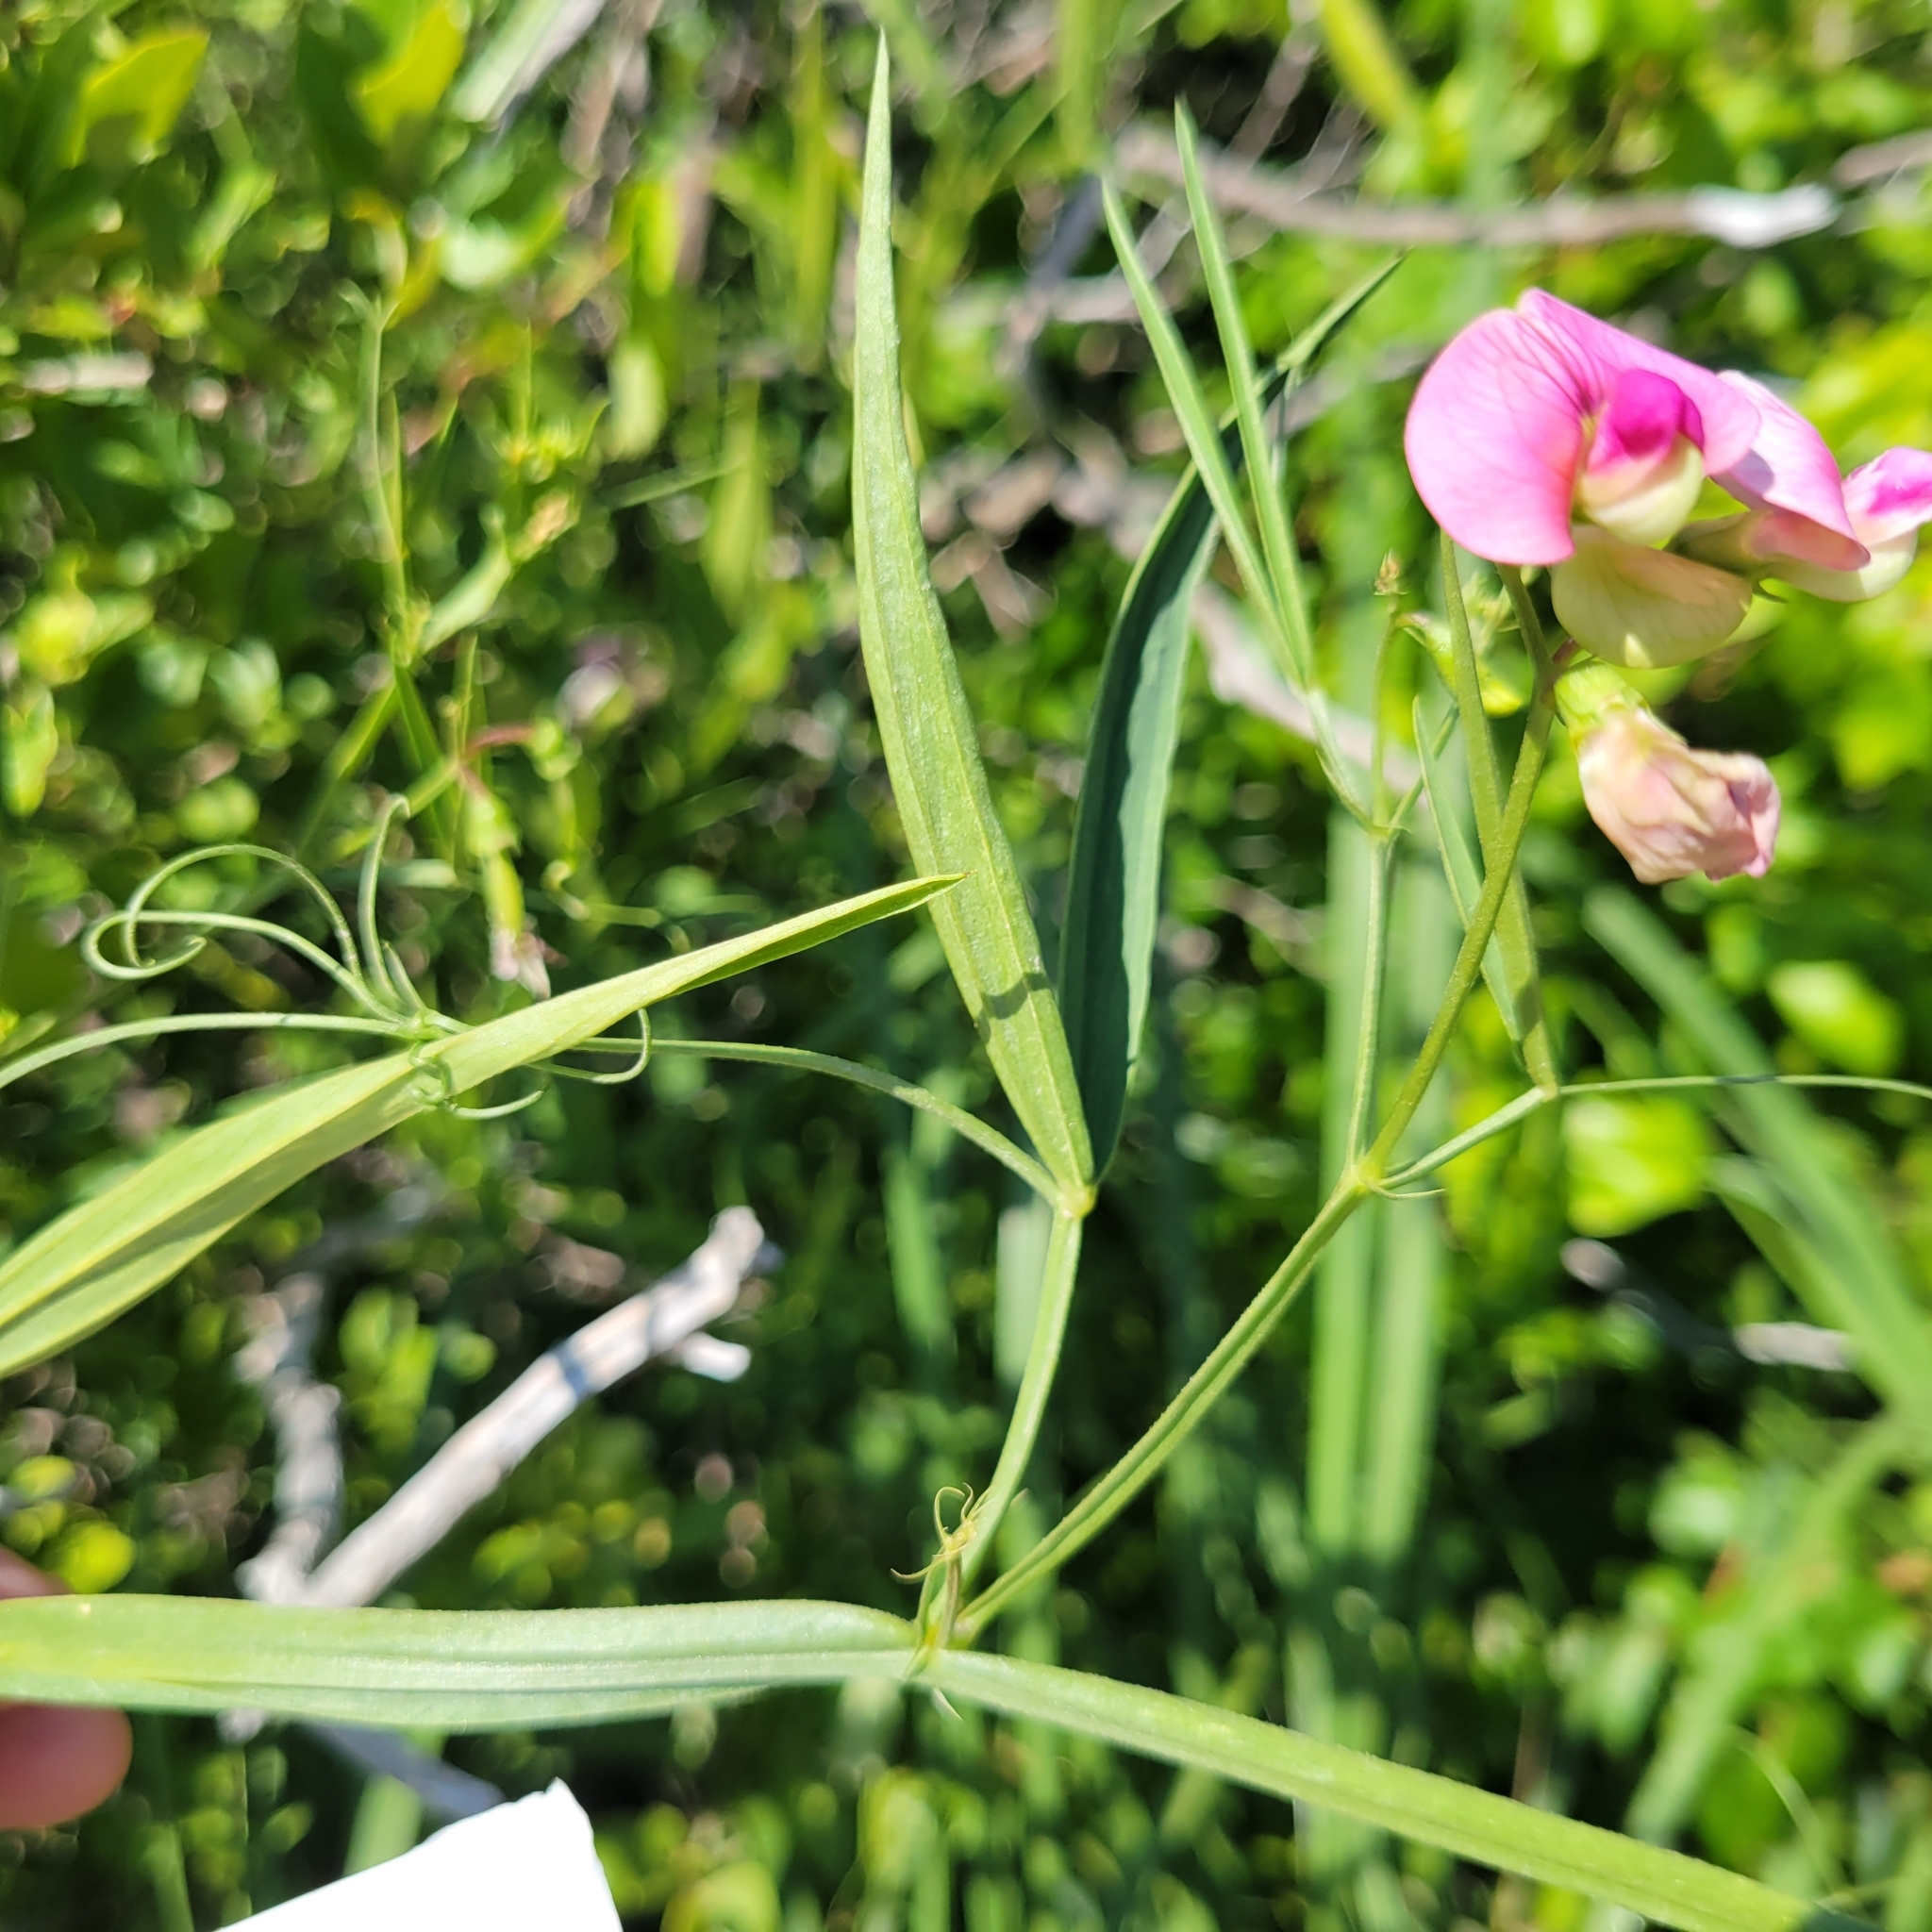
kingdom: Plantae
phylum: Tracheophyta
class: Magnoliopsida
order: Fabales
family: Fabaceae
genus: Lathyrus
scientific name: Lathyrus sylvestris
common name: Flat pea
